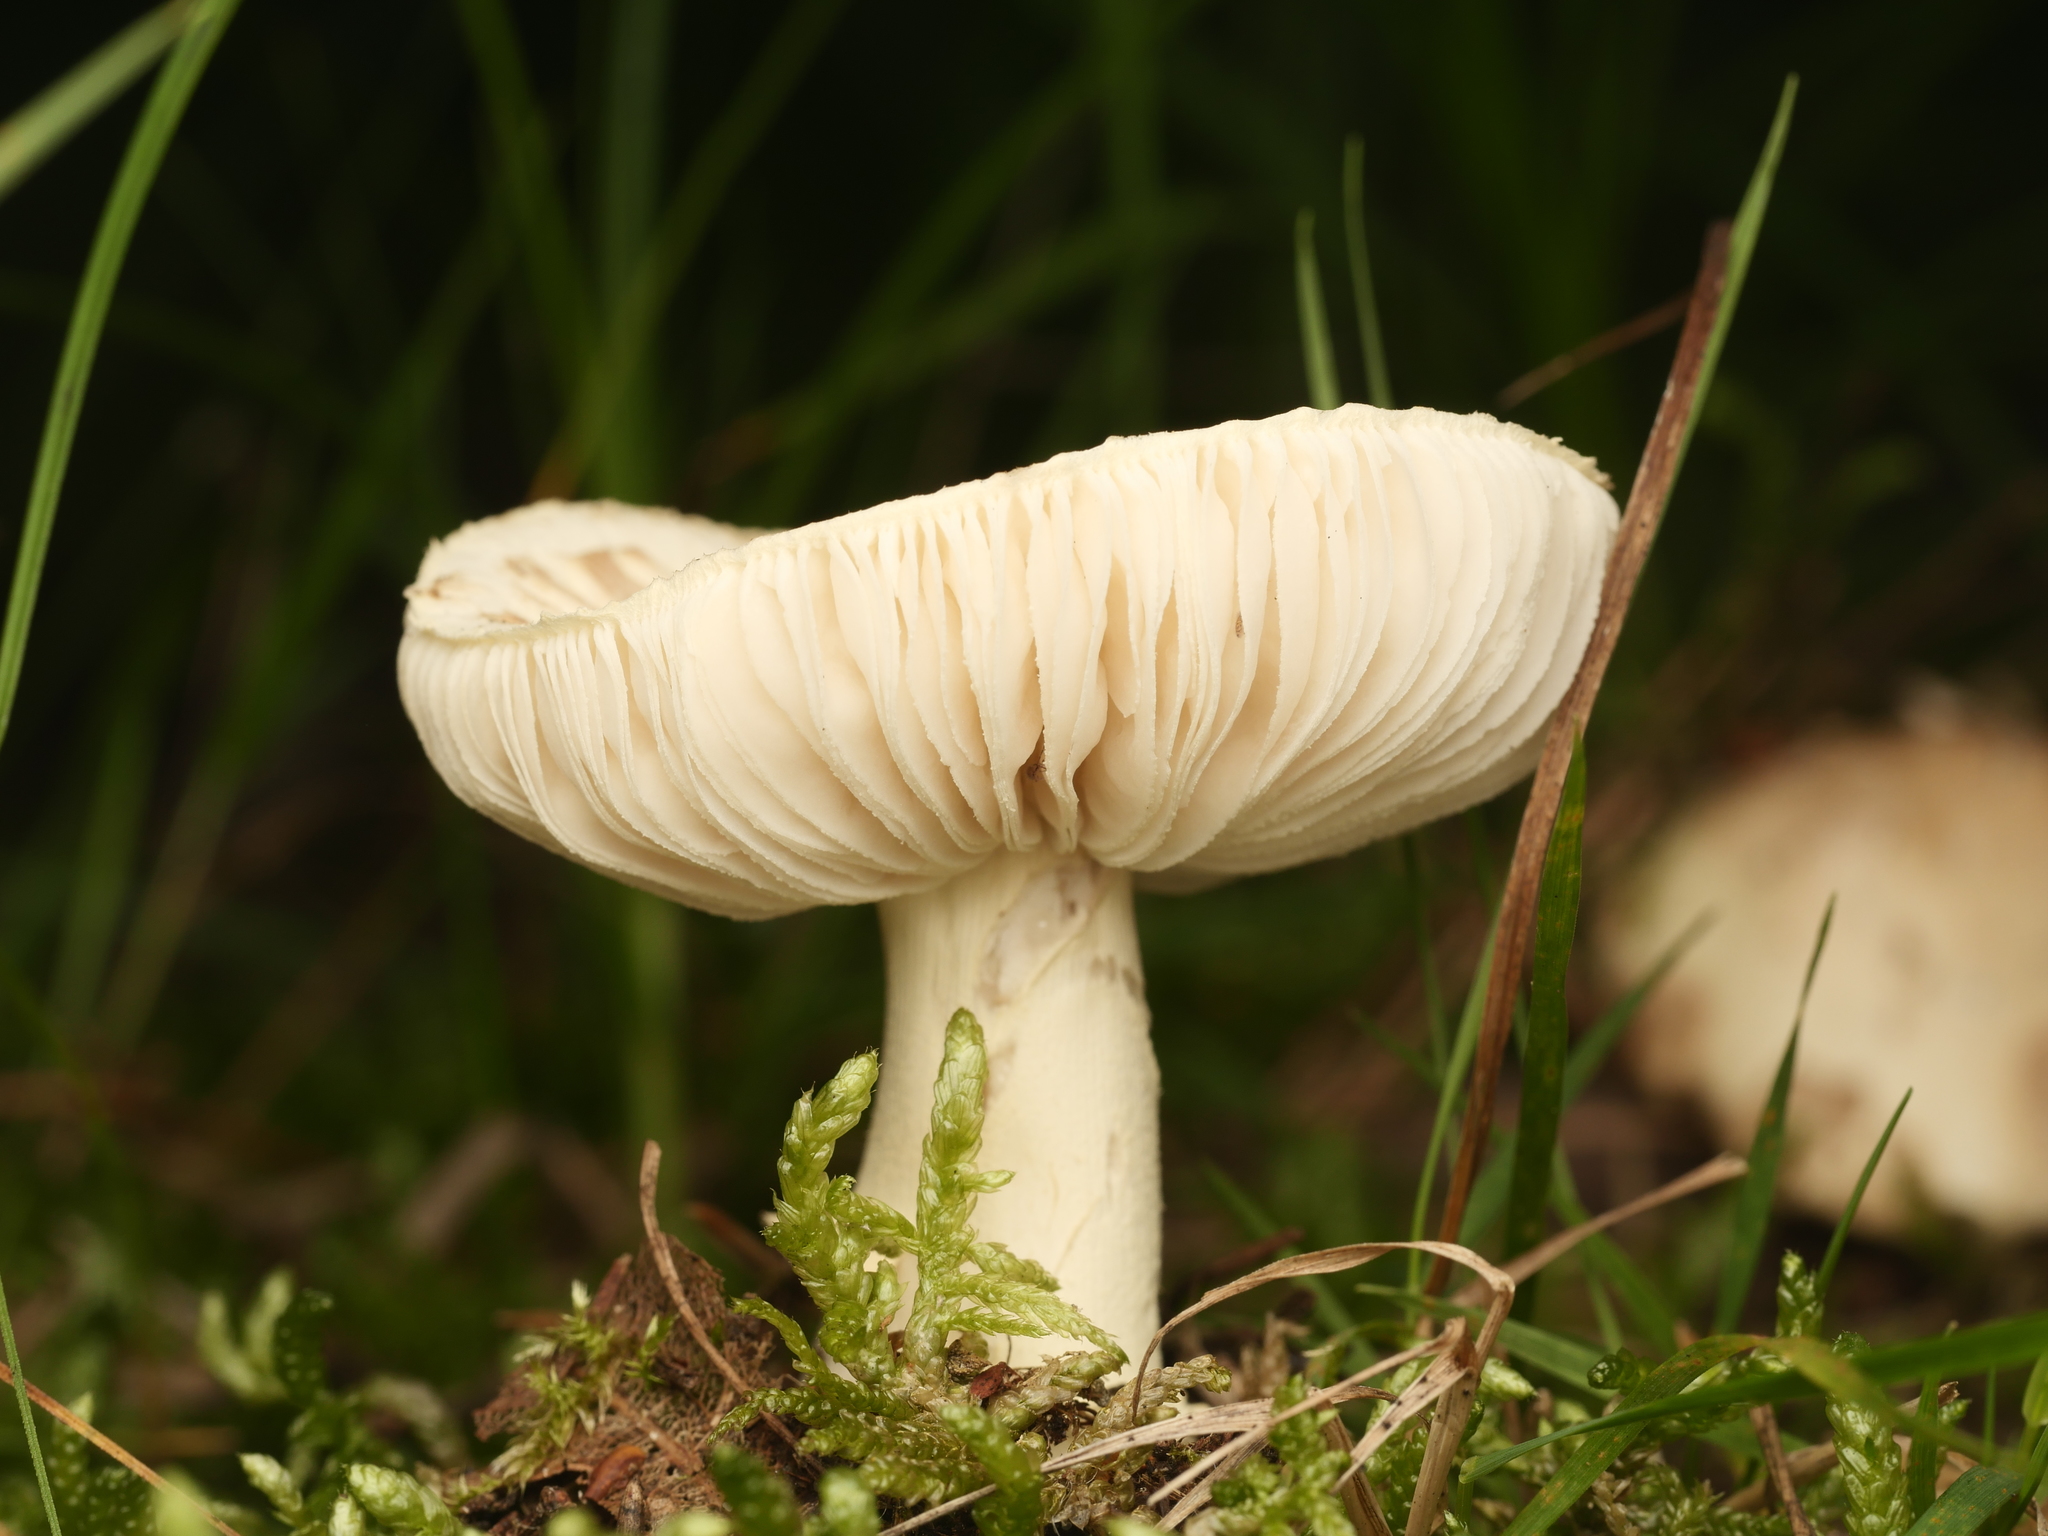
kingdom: Fungi
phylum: Basidiomycota
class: Agaricomycetes
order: Agaricales
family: Amanitaceae
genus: Amanita
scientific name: Amanita citrina
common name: False death-cap
